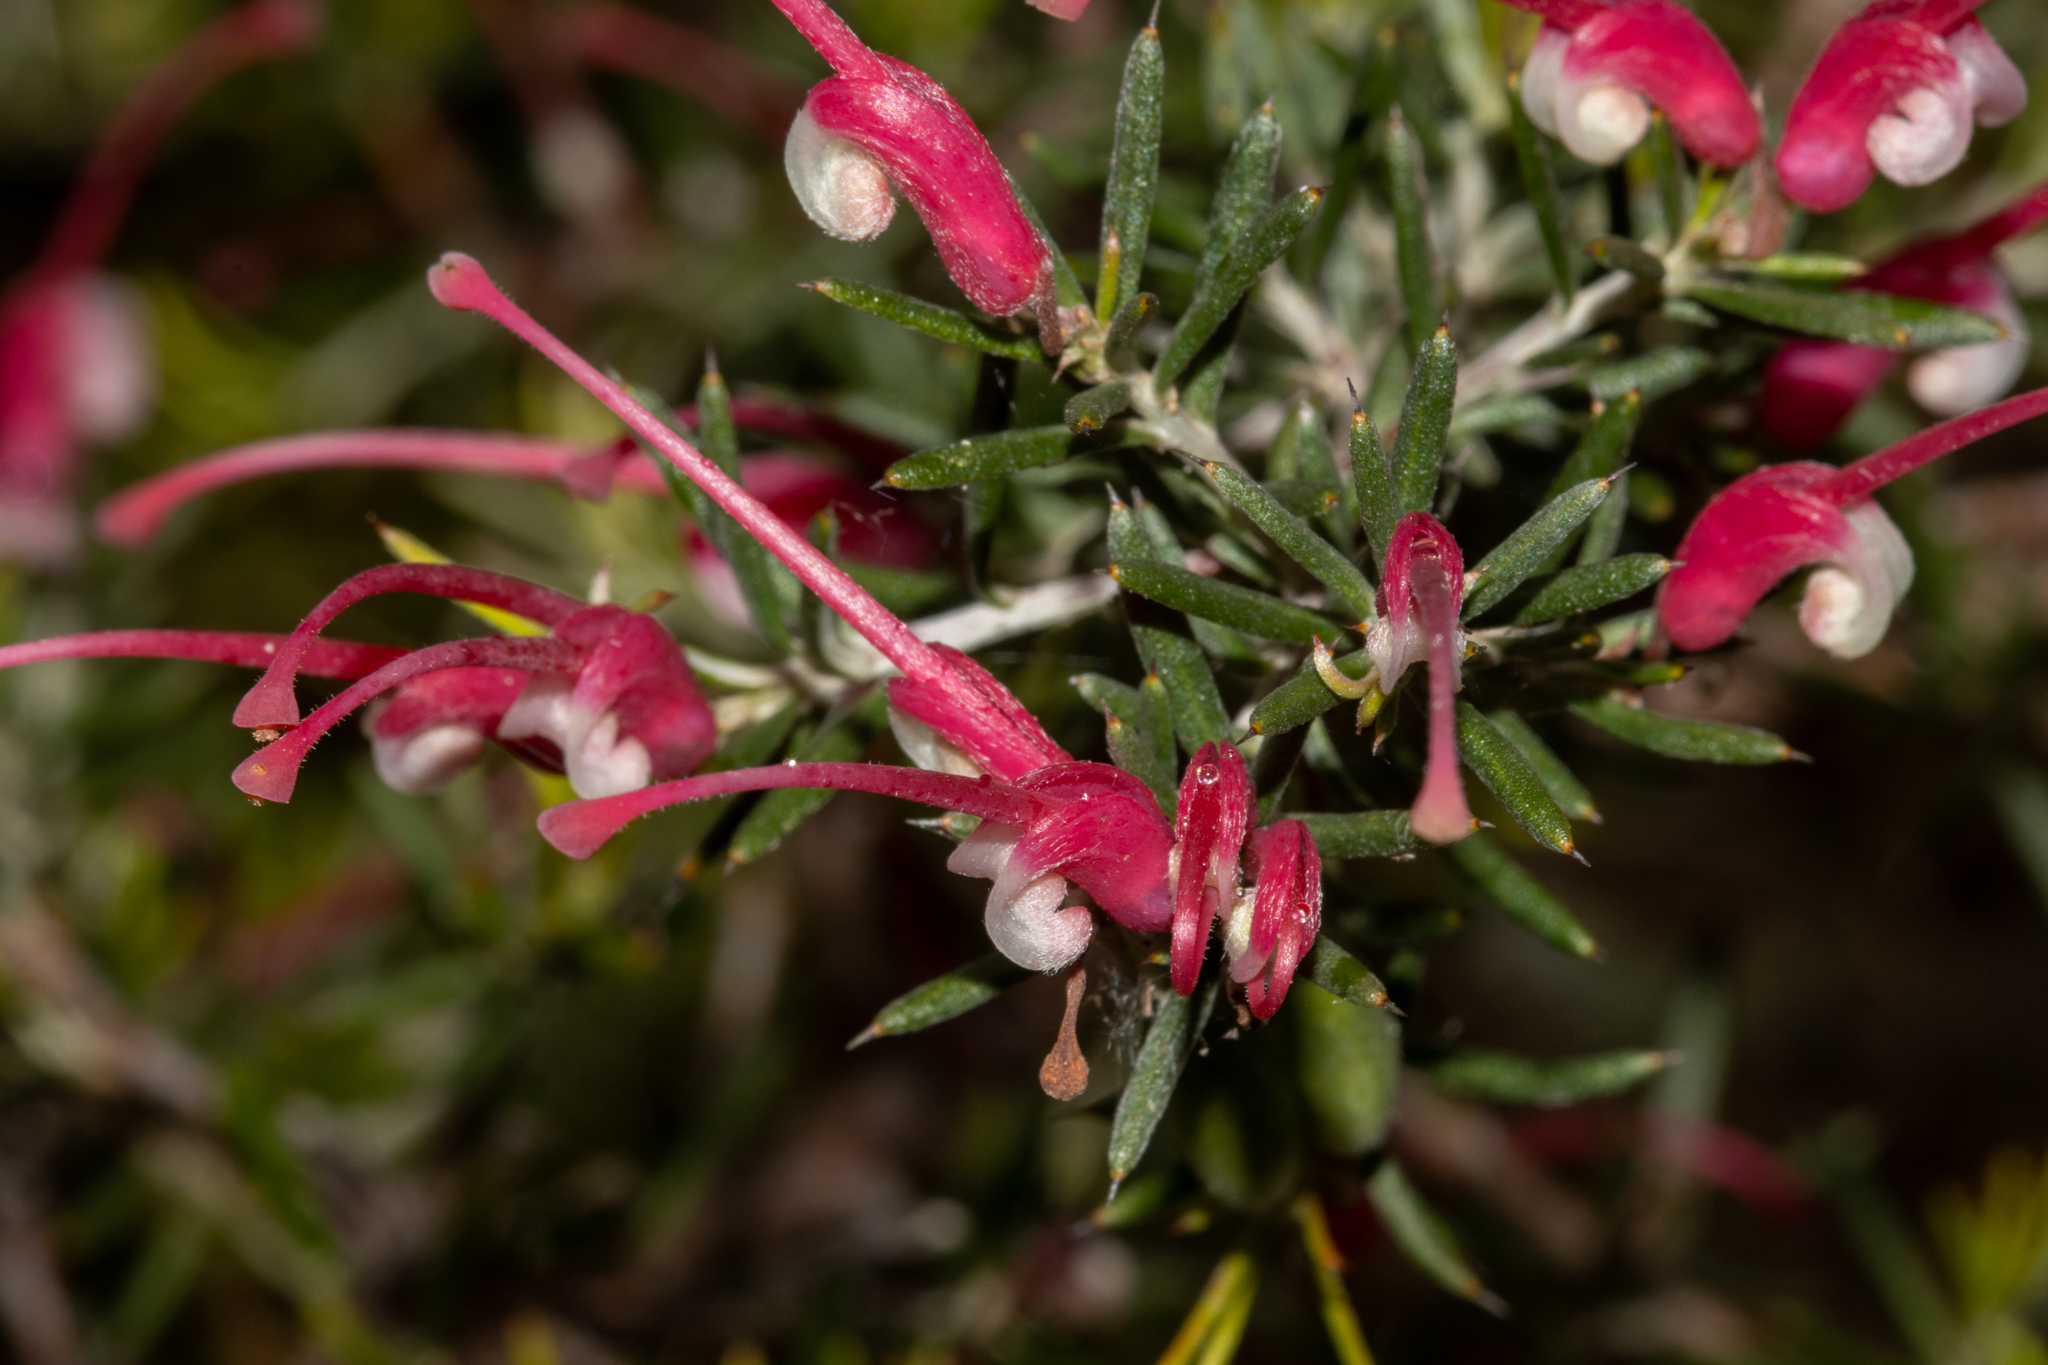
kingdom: Plantae
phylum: Tracheophyta
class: Magnoliopsida
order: Proteales
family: Proteaceae
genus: Grevillea
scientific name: Grevillea lavandulacea
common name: Lavender grevillea
